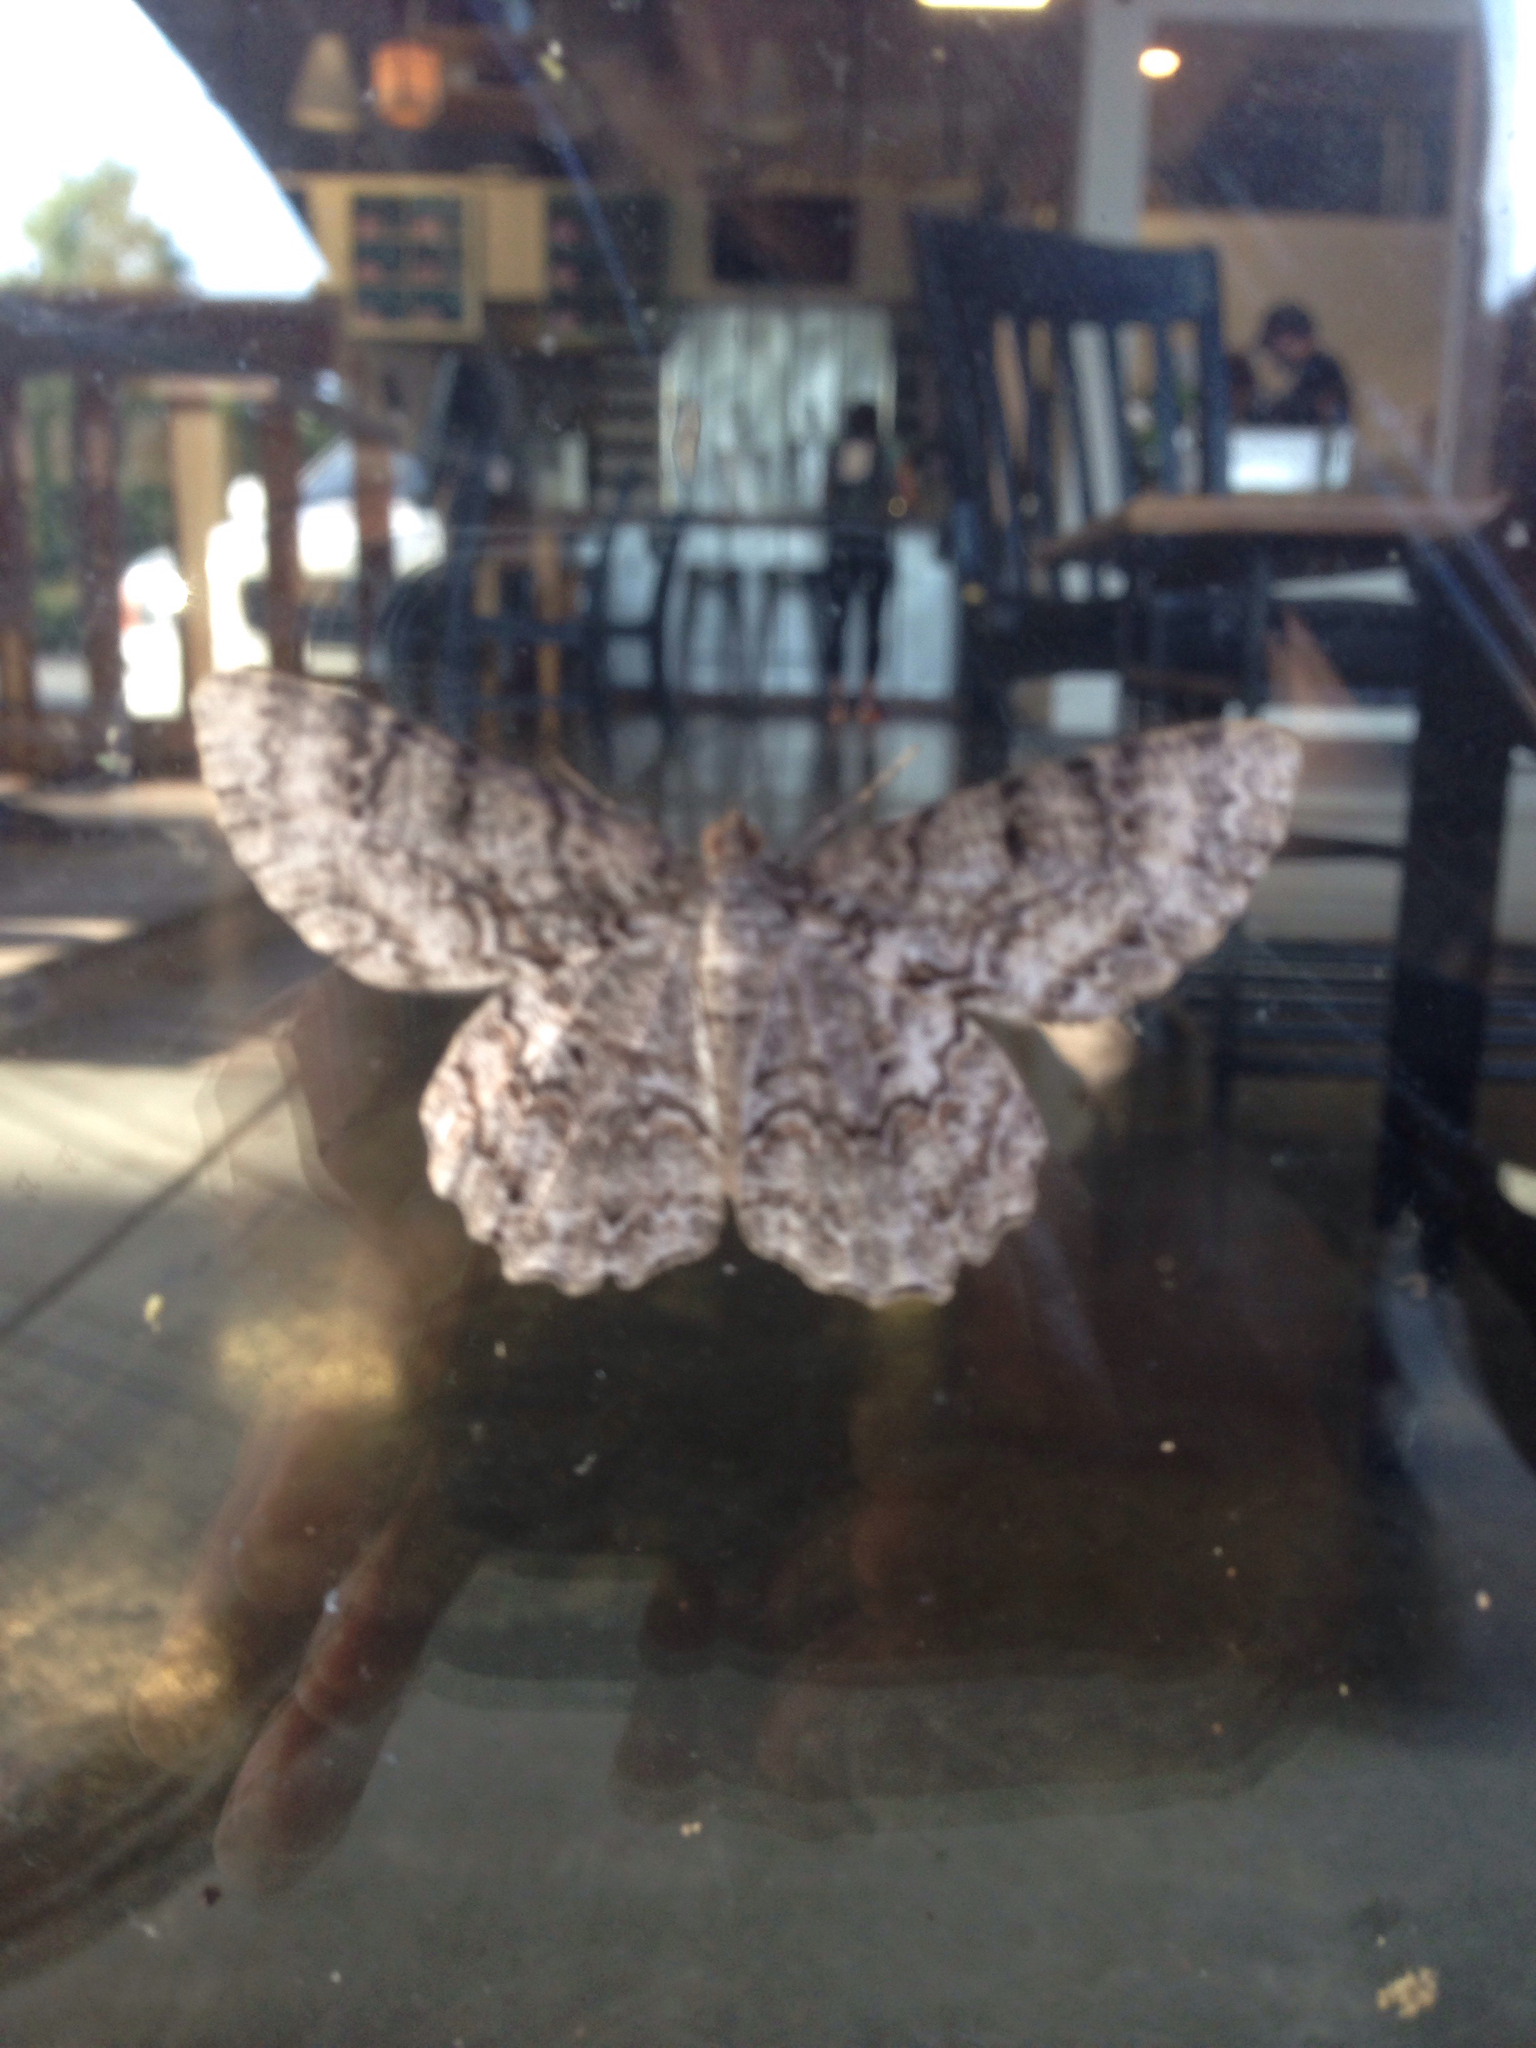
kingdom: Animalia
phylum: Arthropoda
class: Insecta
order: Lepidoptera
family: Geometridae
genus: Epimecis
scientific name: Epimecis hortaria
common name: Tulip-tree beauty
